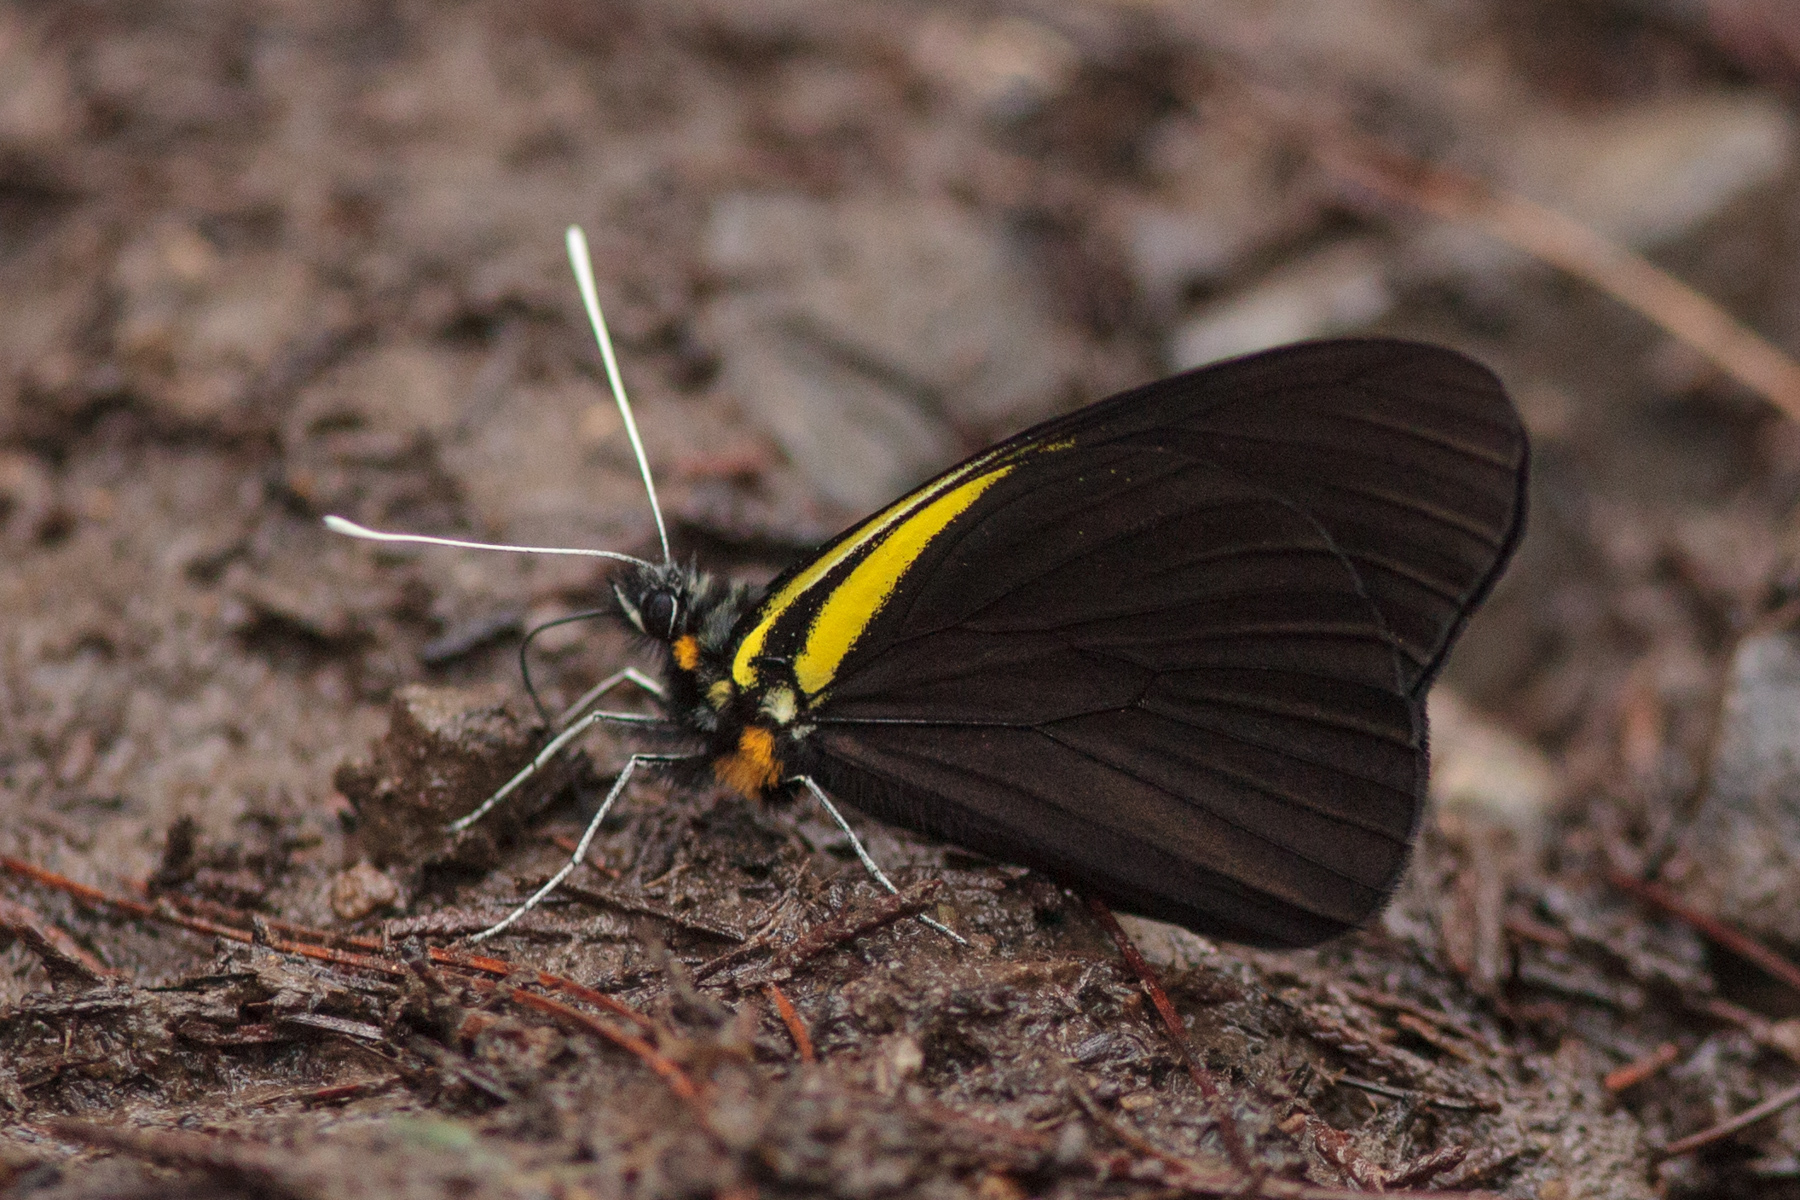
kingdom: Animalia
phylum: Arthropoda
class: Insecta
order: Lepidoptera
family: Pieridae
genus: Pereute
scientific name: Pereute charops
